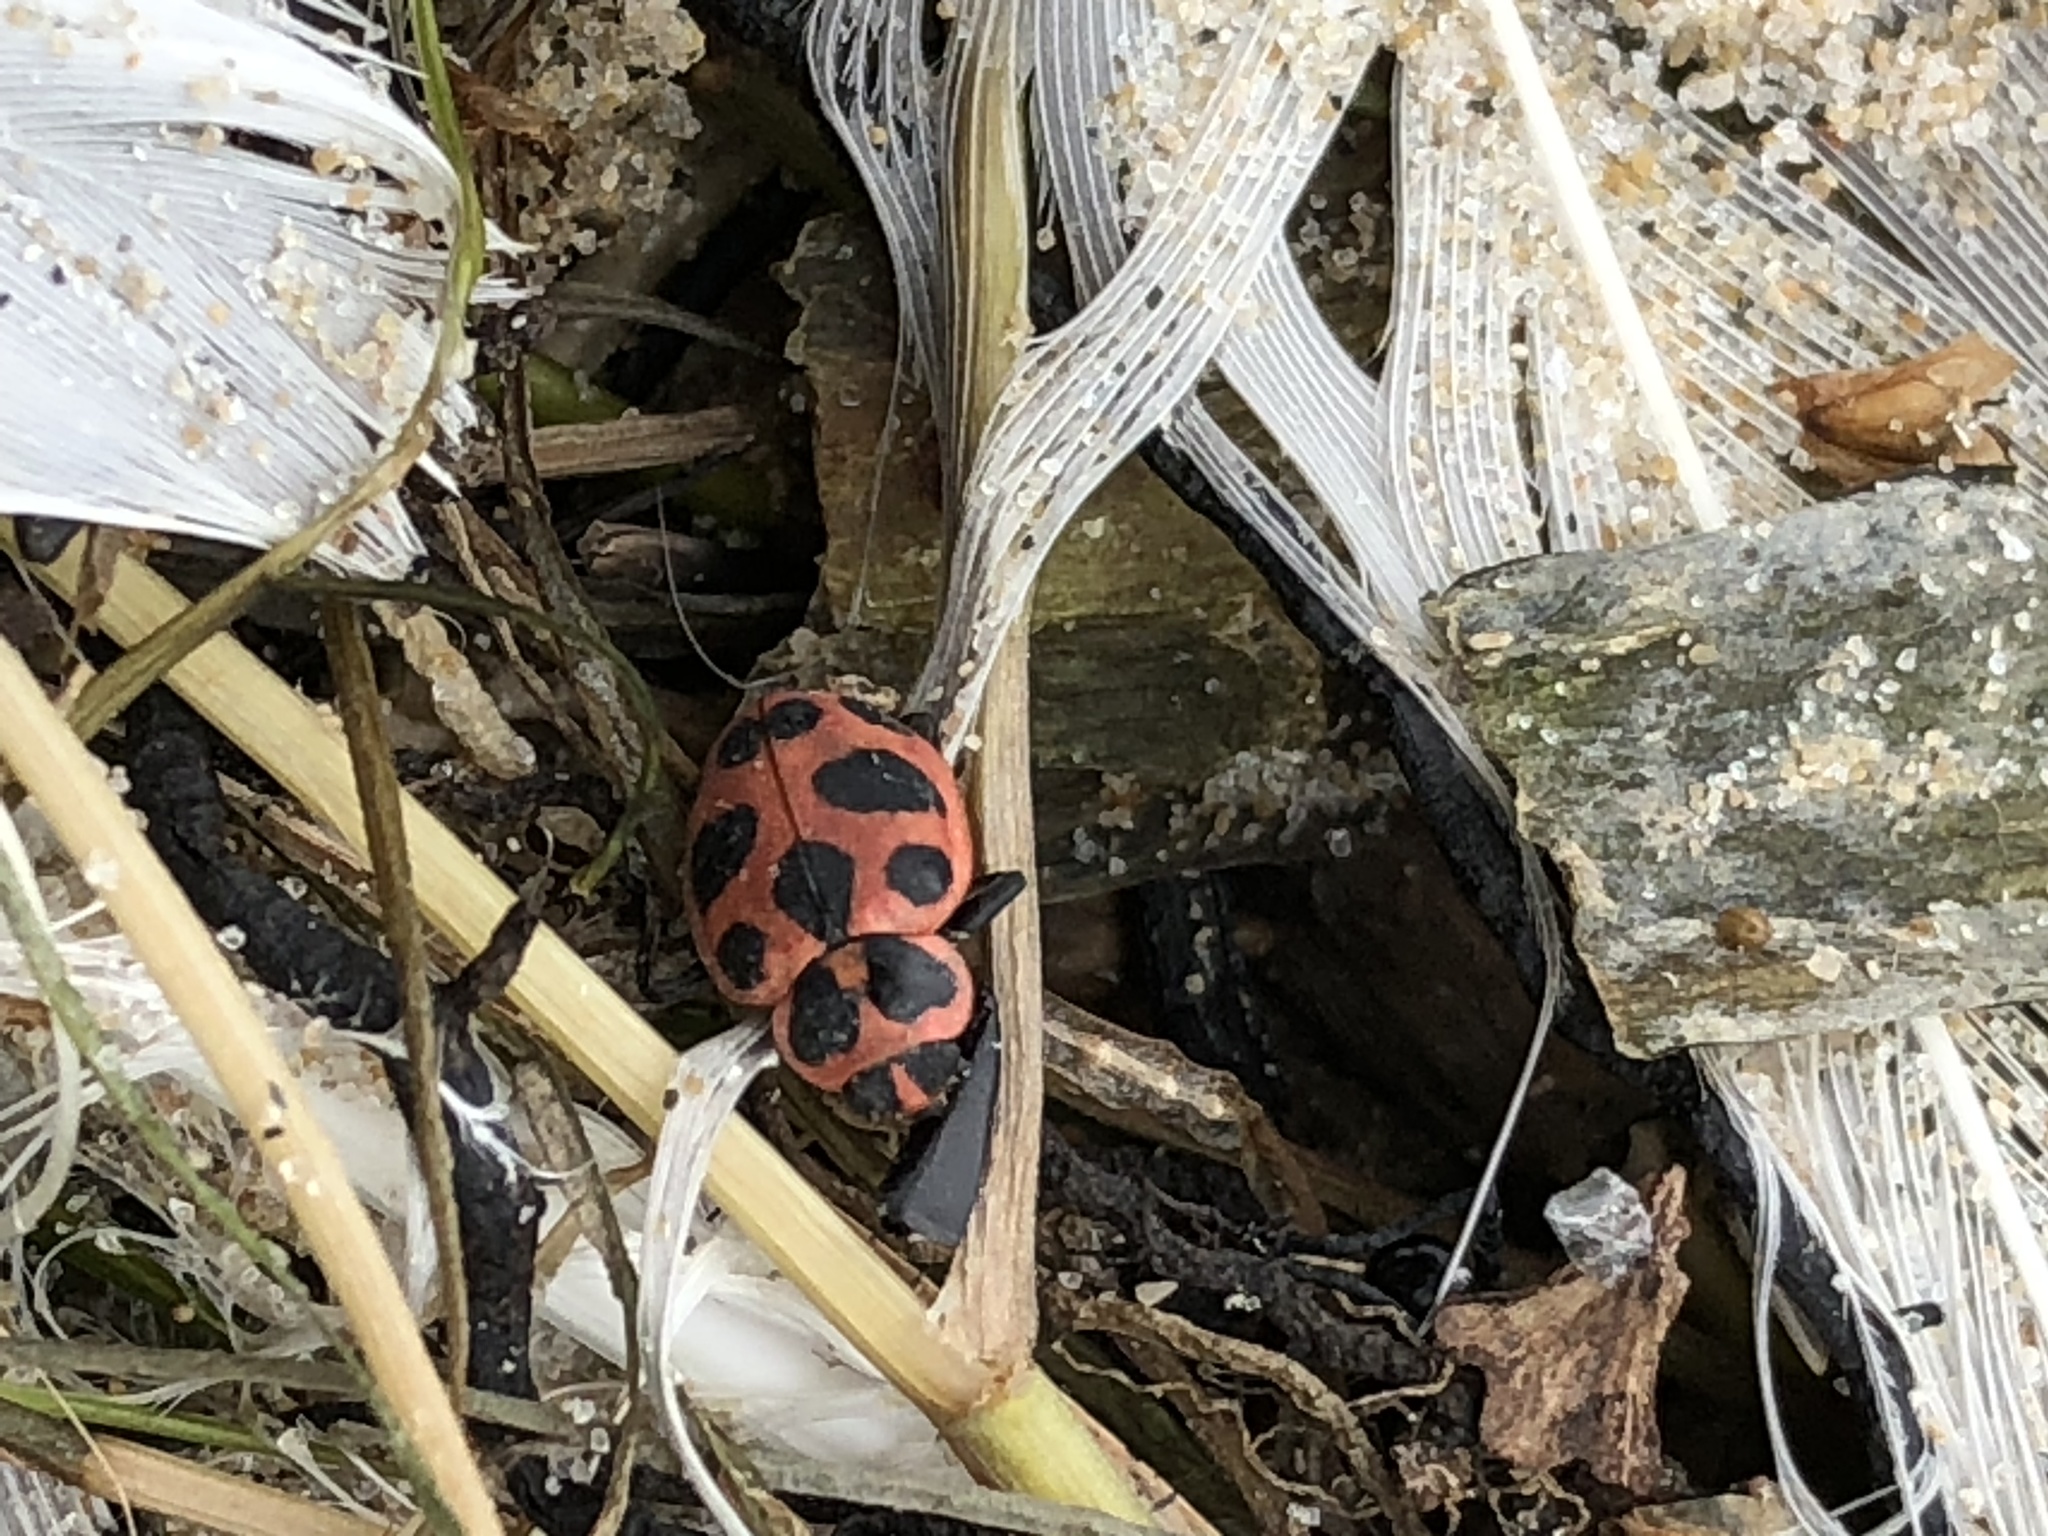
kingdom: Animalia
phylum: Arthropoda
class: Insecta
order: Coleoptera
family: Coccinellidae
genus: Coleomegilla
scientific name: Coleomegilla maculata
